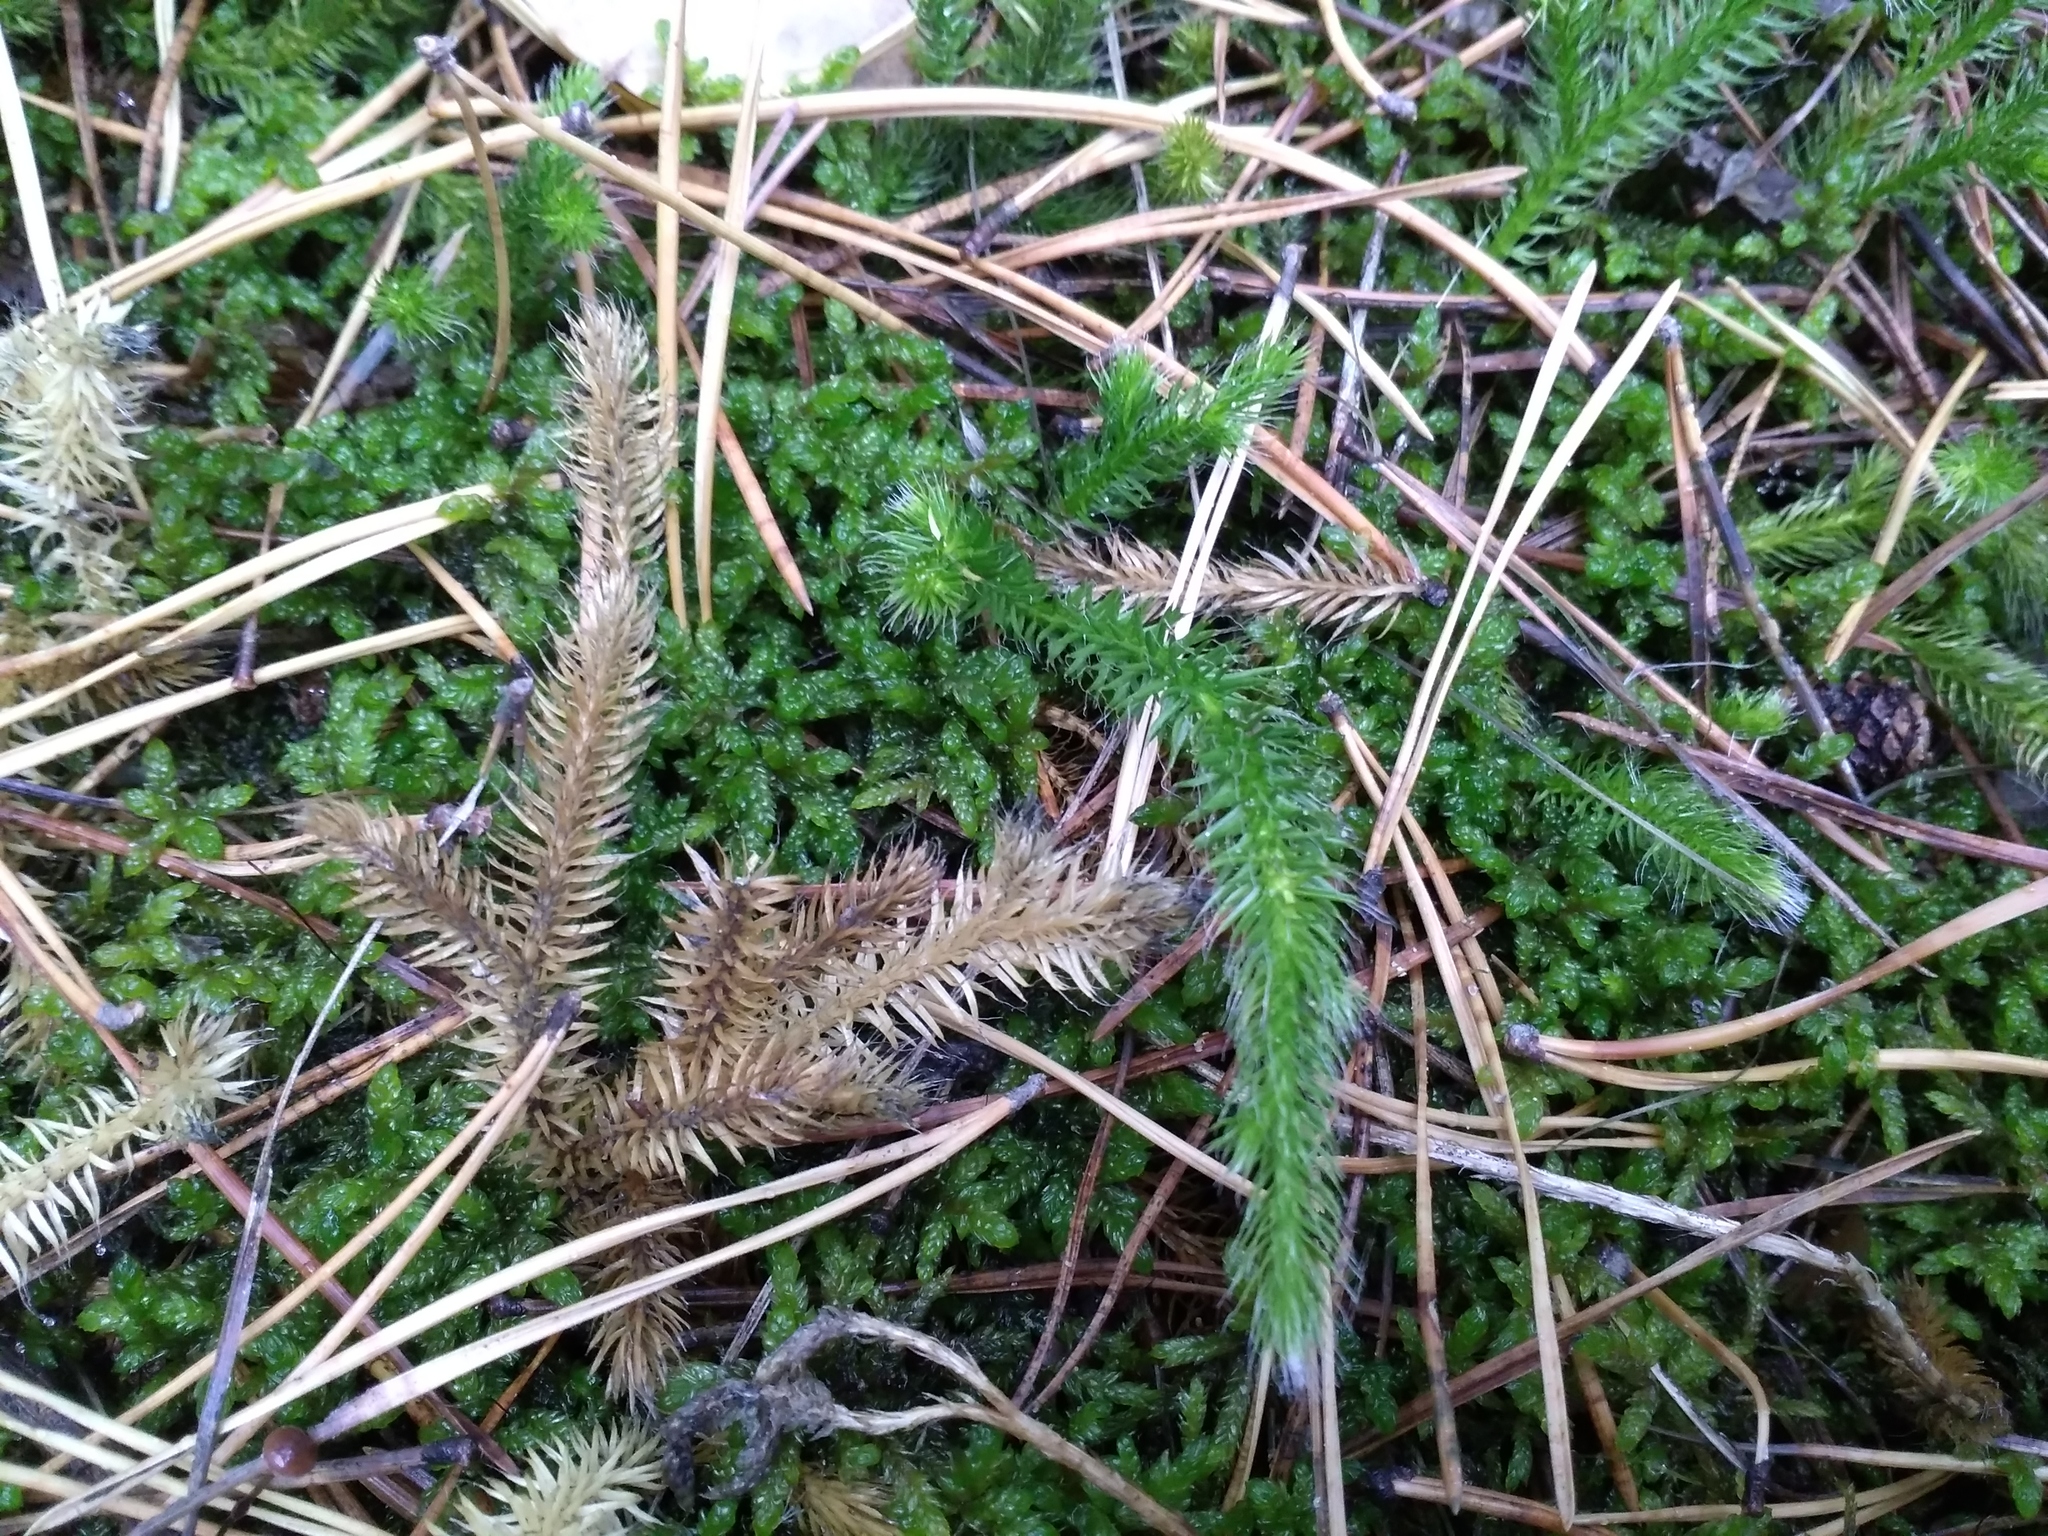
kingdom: Plantae
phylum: Tracheophyta
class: Lycopodiopsida
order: Lycopodiales
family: Lycopodiaceae
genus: Lycopodium
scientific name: Lycopodium clavatum
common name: Stag's-horn clubmoss
